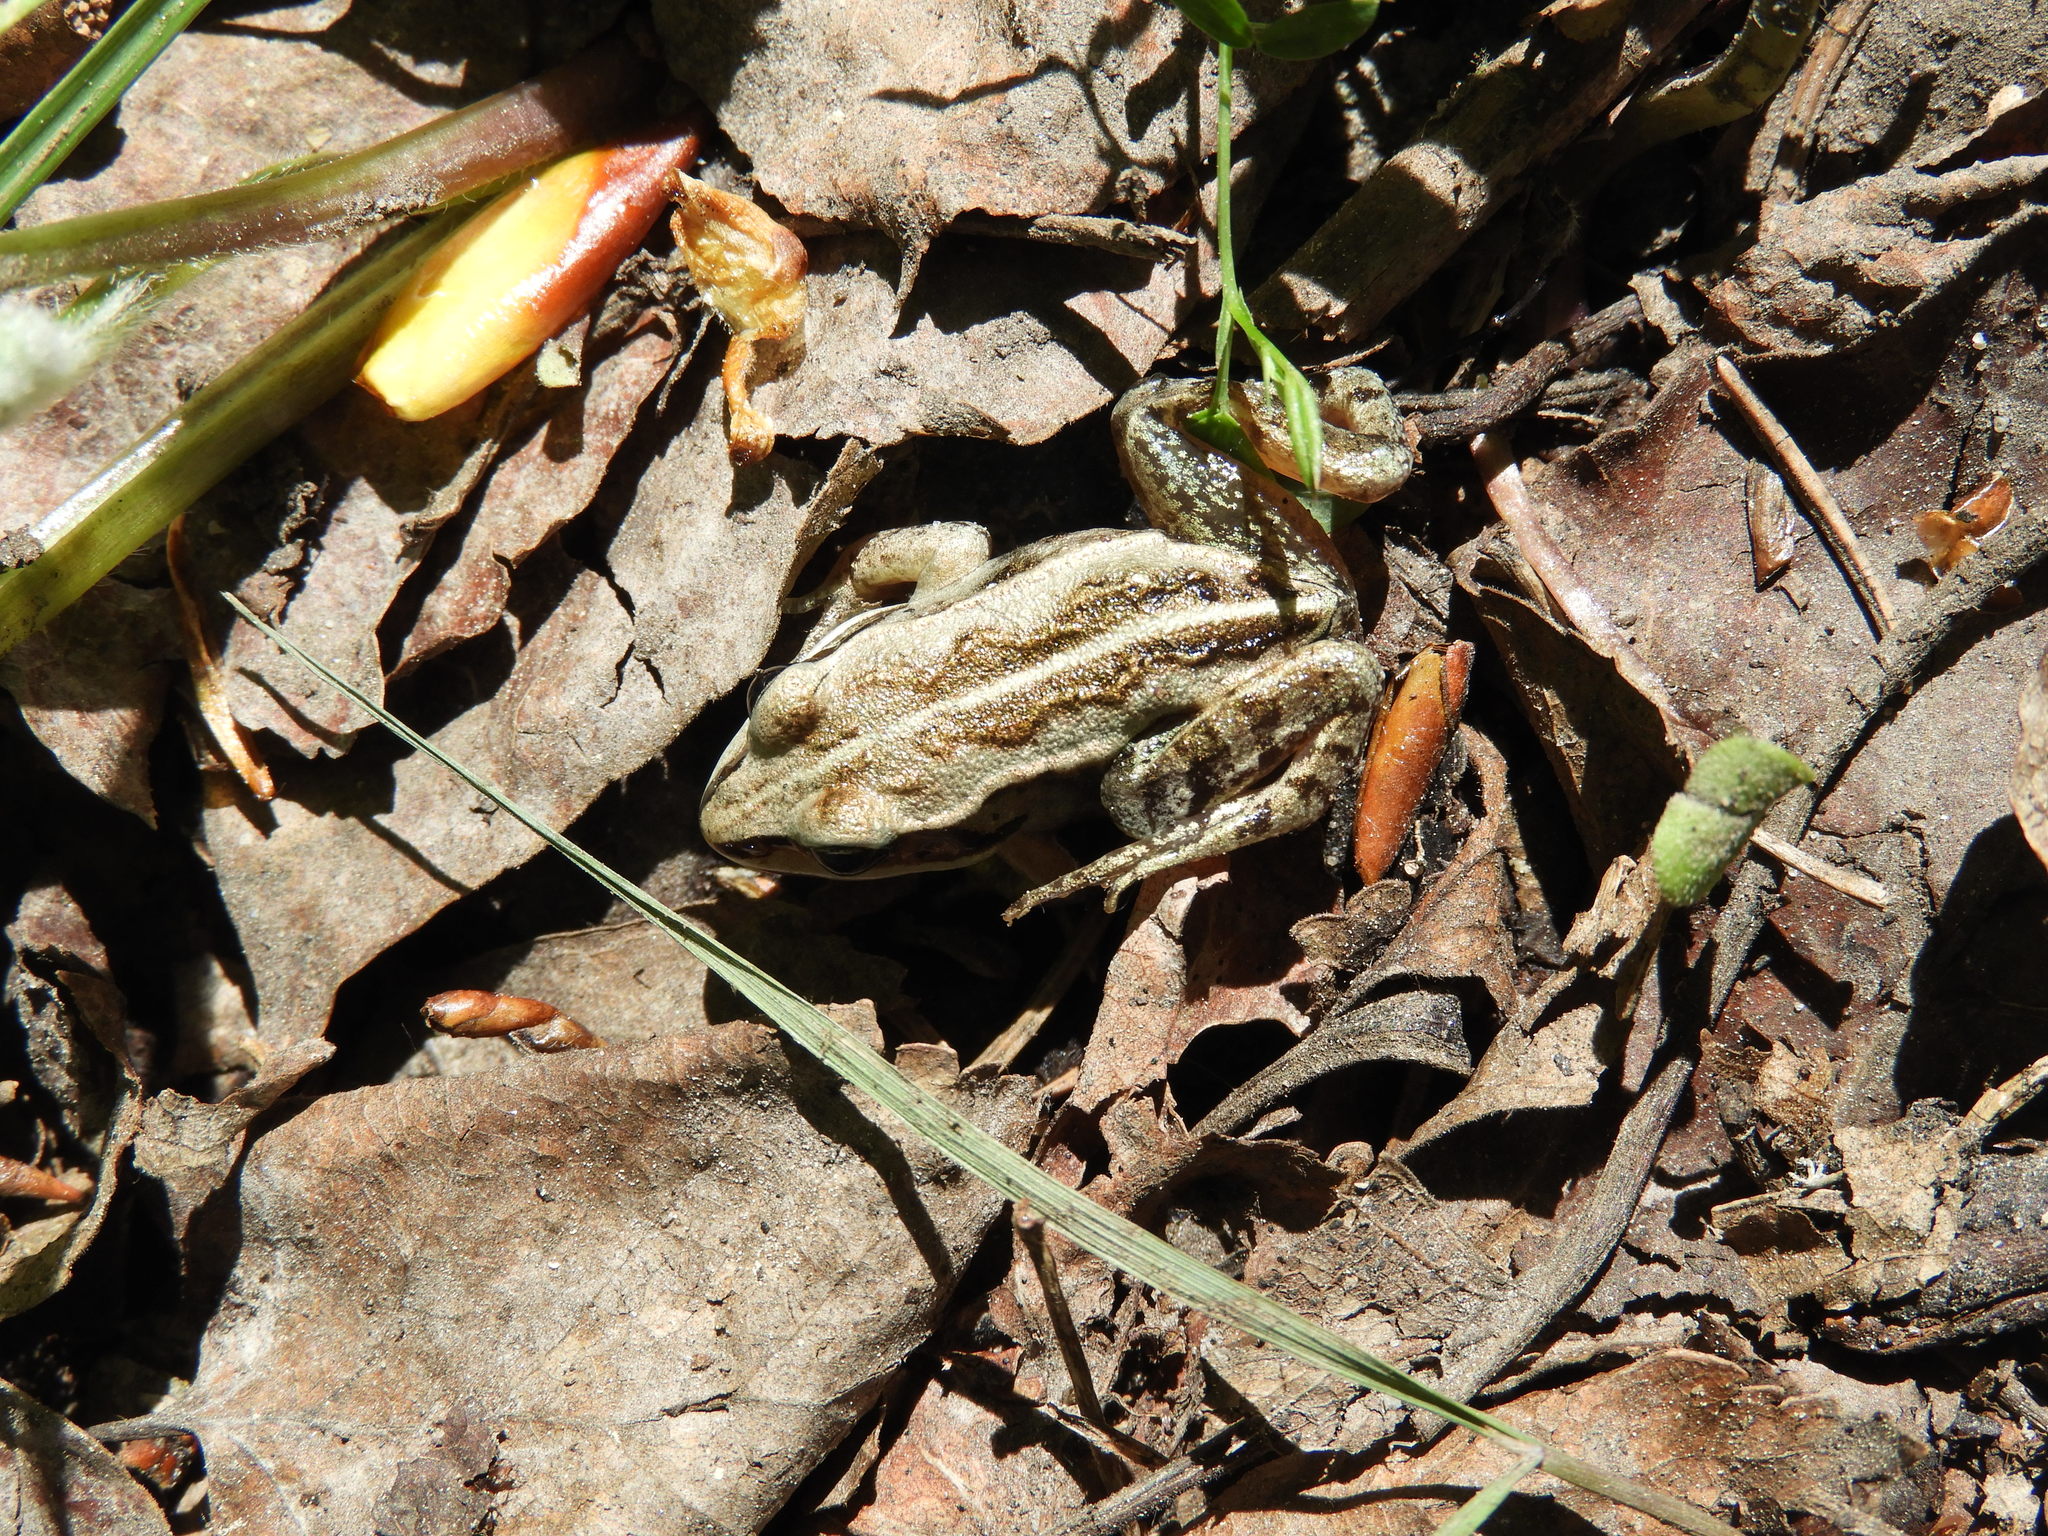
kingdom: Animalia
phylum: Chordata
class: Amphibia
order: Anura
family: Ranidae
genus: Lithobates
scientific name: Lithobates sylvaticus
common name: Wood frog
